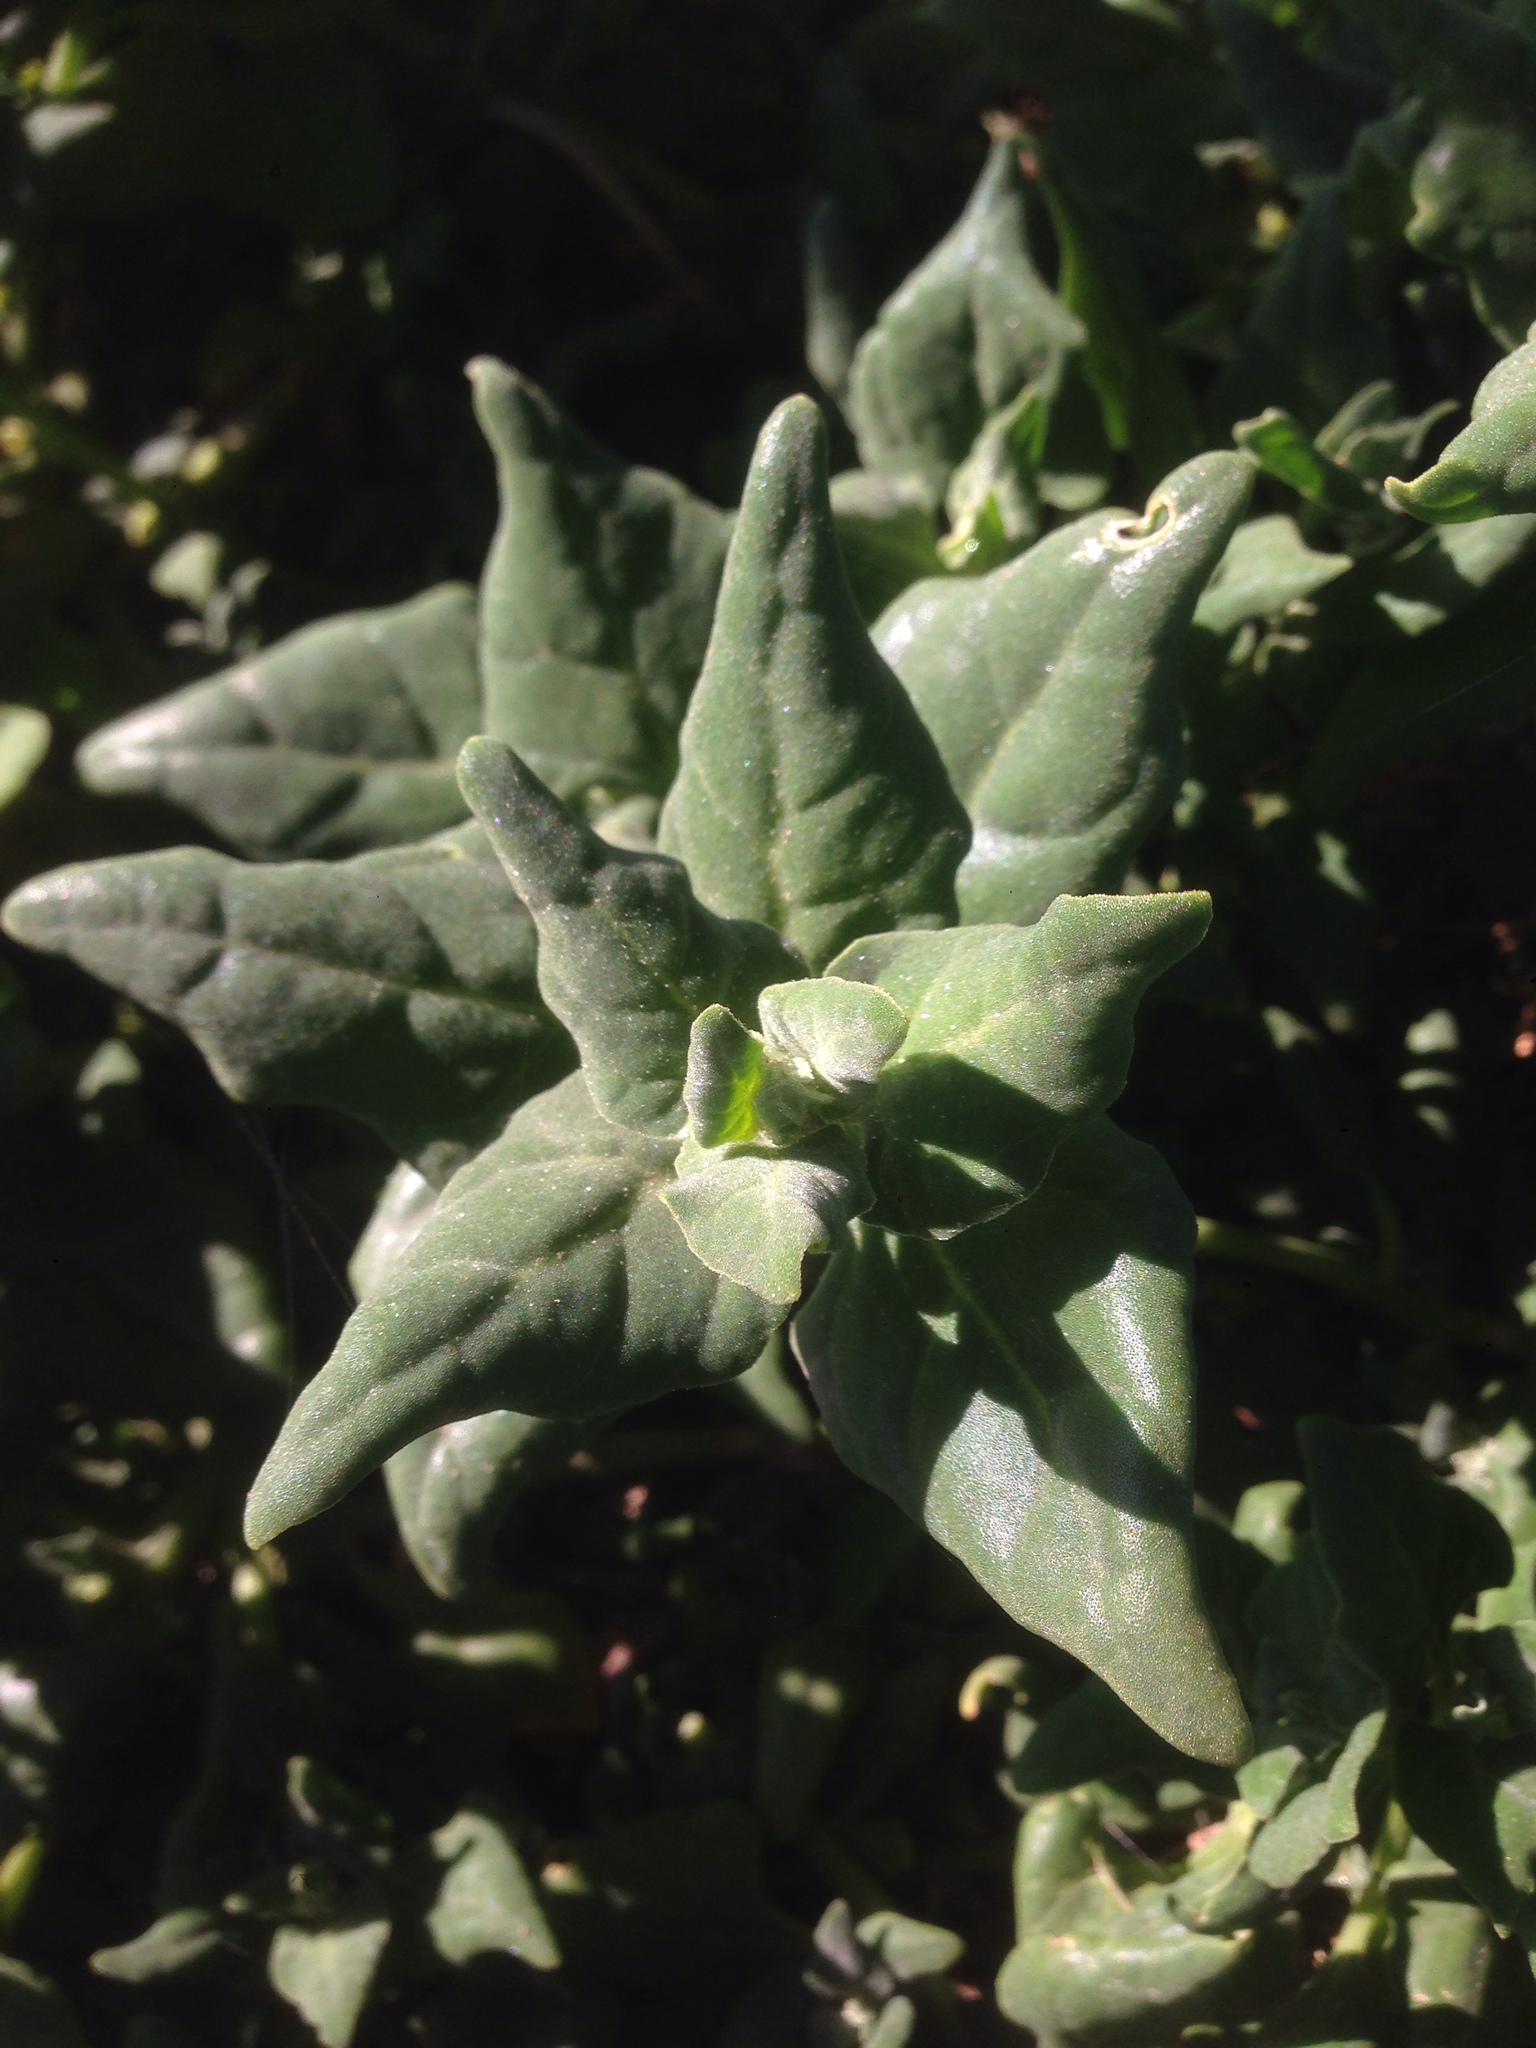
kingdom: Plantae
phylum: Tracheophyta
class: Magnoliopsida
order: Caryophyllales
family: Aizoaceae
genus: Tetragonia
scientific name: Tetragonia tetragonoides
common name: New zealand-spinach
